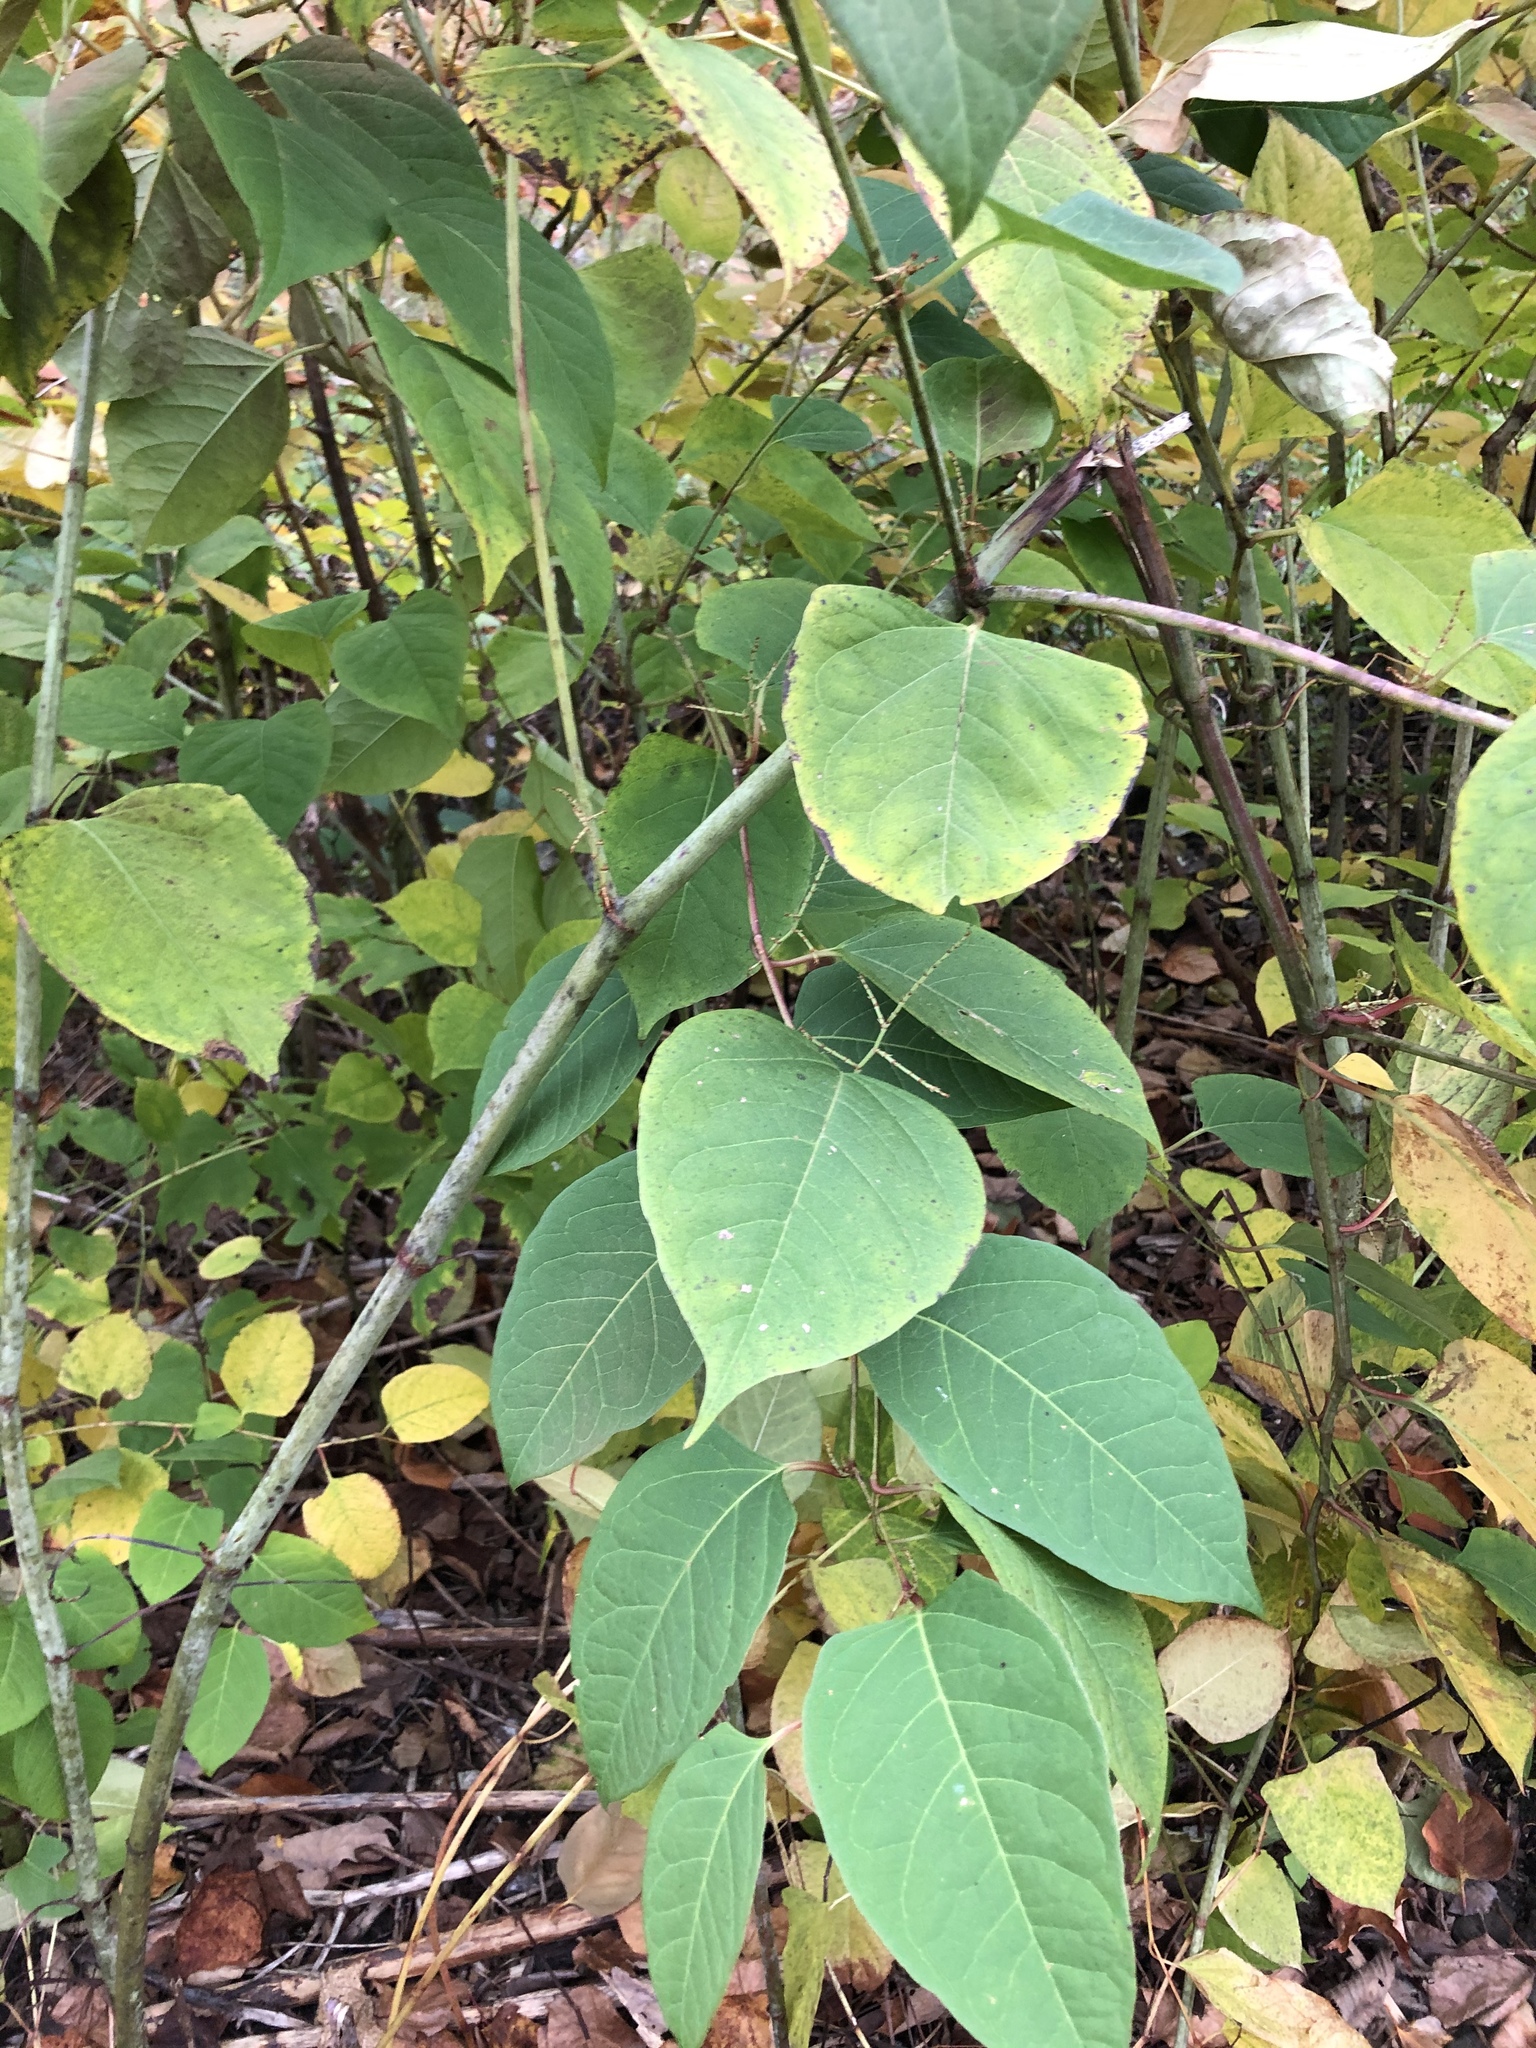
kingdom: Plantae
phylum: Tracheophyta
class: Magnoliopsida
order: Caryophyllales
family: Polygonaceae
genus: Reynoutria
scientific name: Reynoutria japonica
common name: Japanese knotweed
